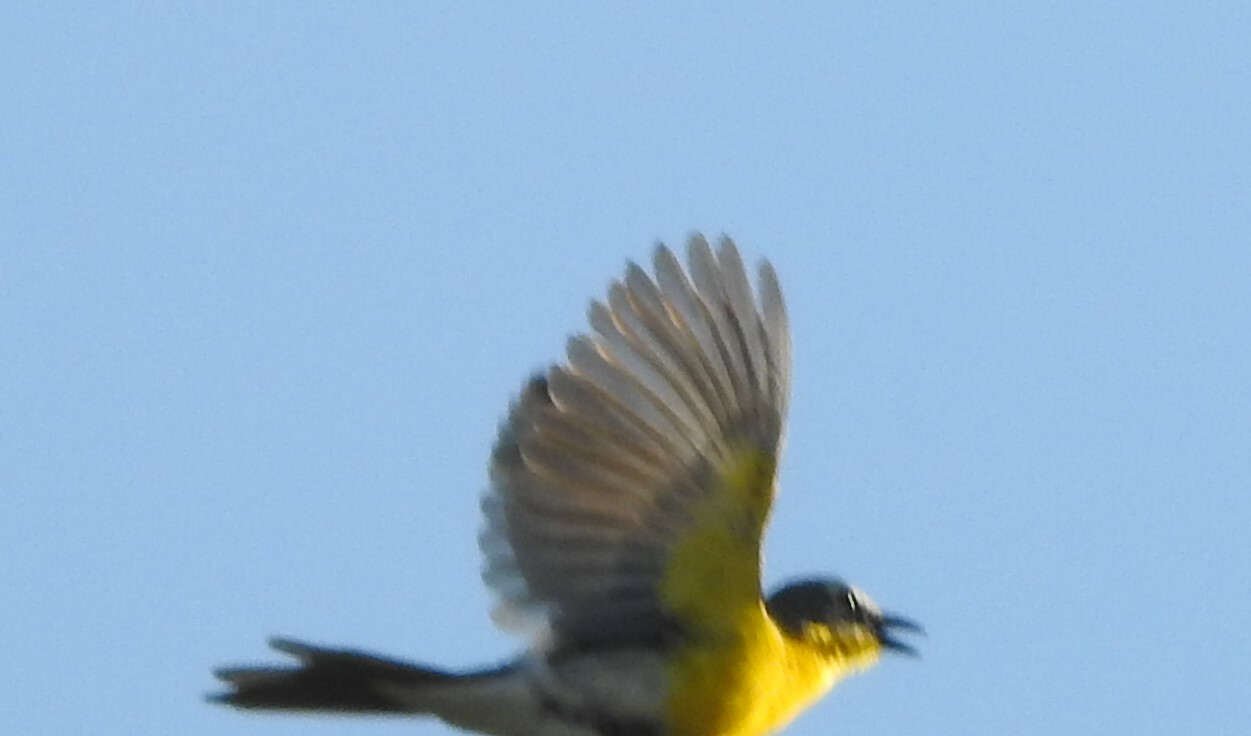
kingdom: Animalia
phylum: Chordata
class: Aves
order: Passeriformes
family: Parulidae
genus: Icteria
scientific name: Icteria virens
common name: Yellow-breasted chat
